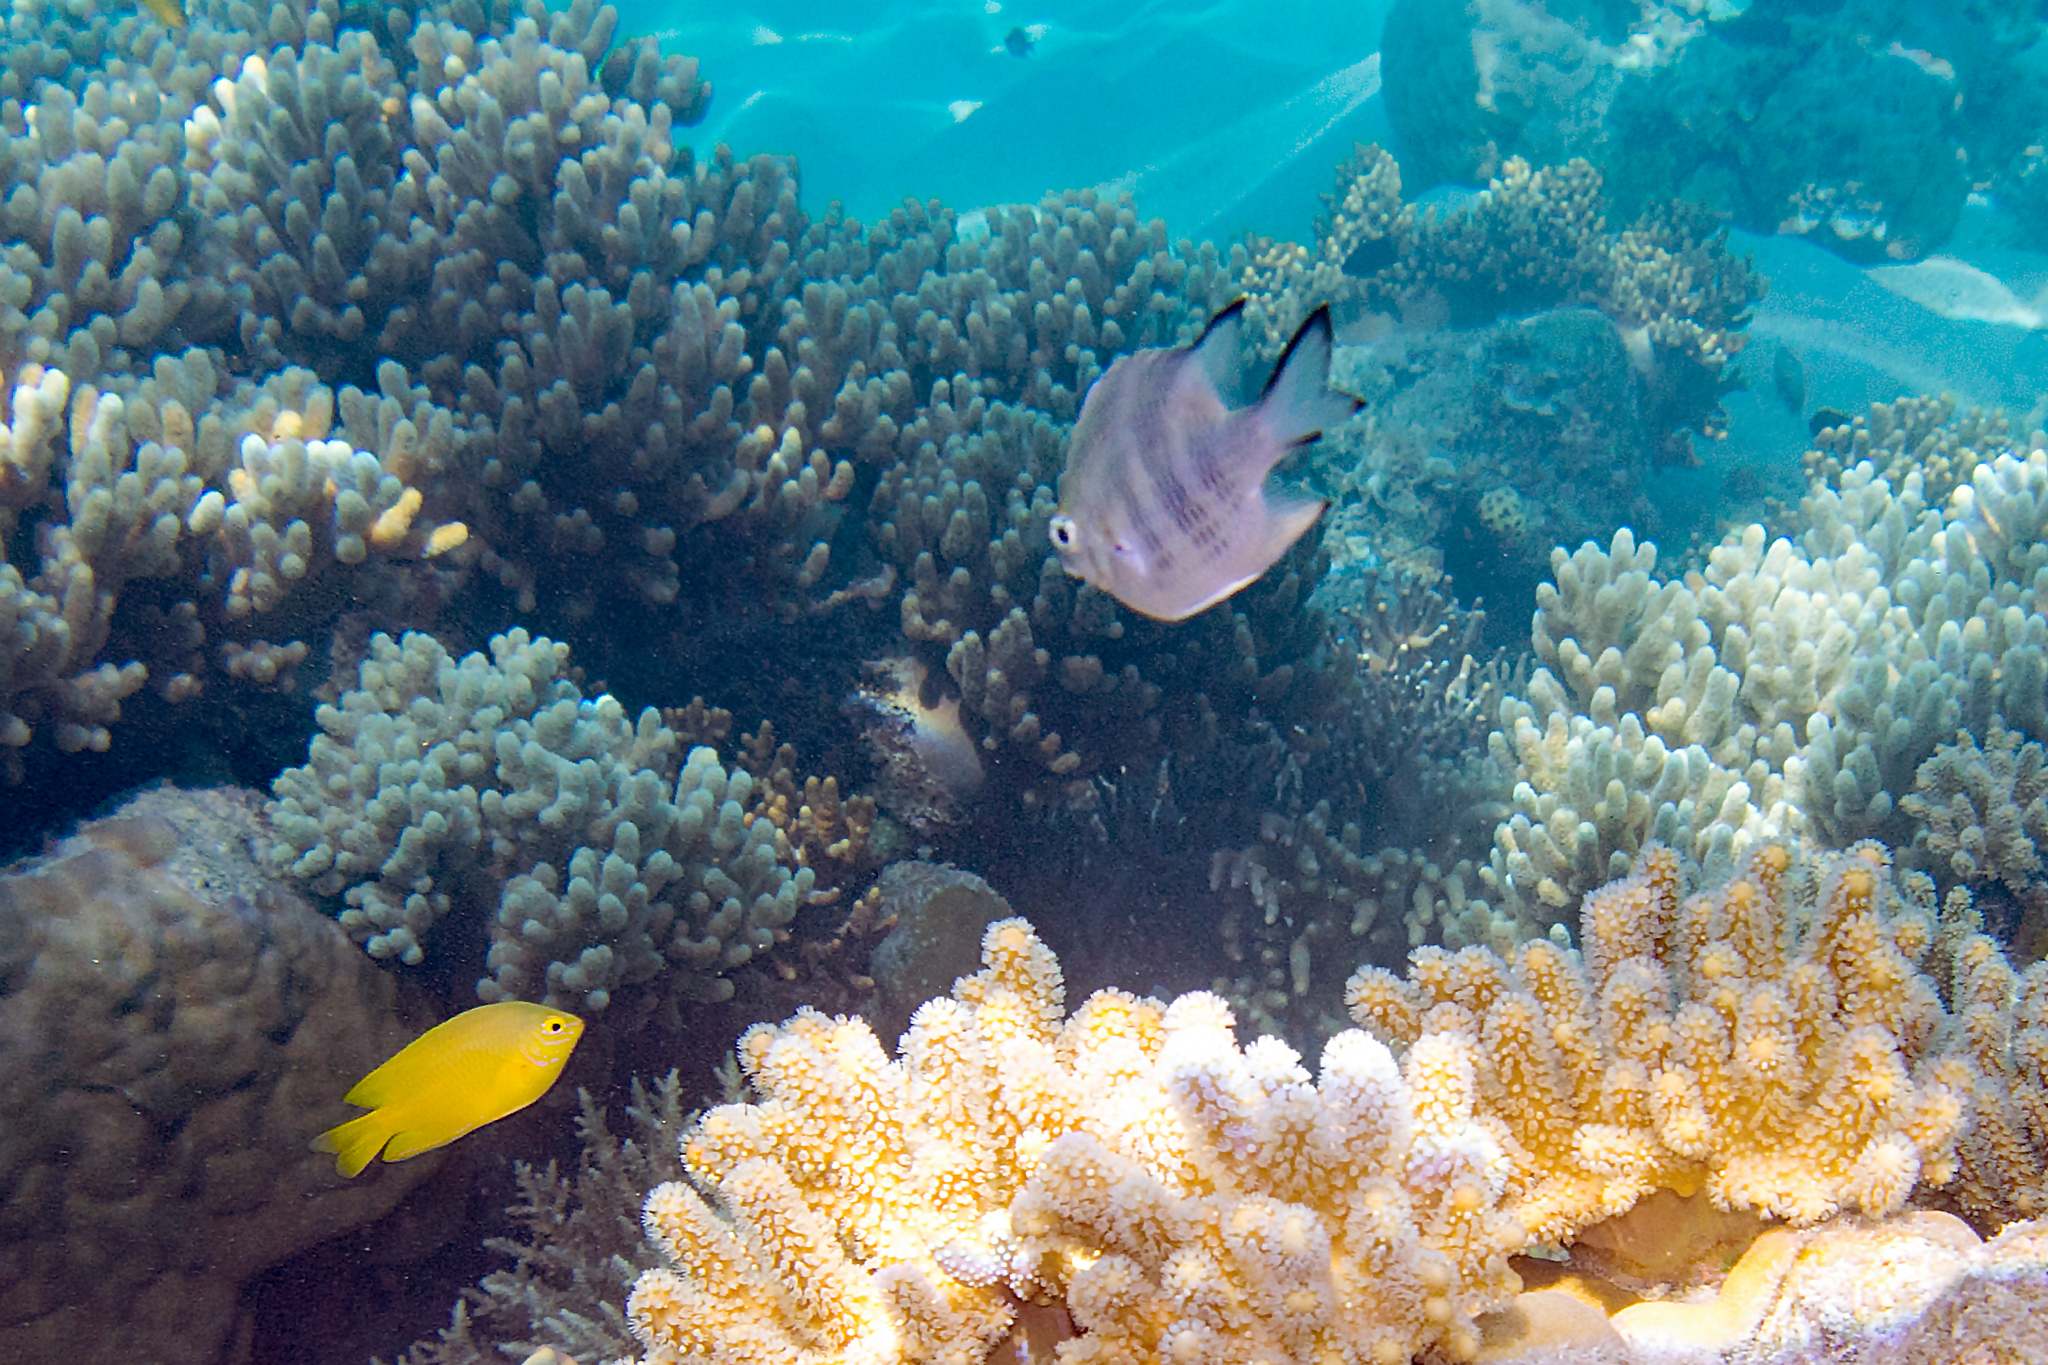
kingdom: Animalia
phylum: Chordata
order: Perciformes
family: Pomacentridae
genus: Amblyglyphidodon
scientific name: Amblyglyphidodon curacao
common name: Staghorn damsel
